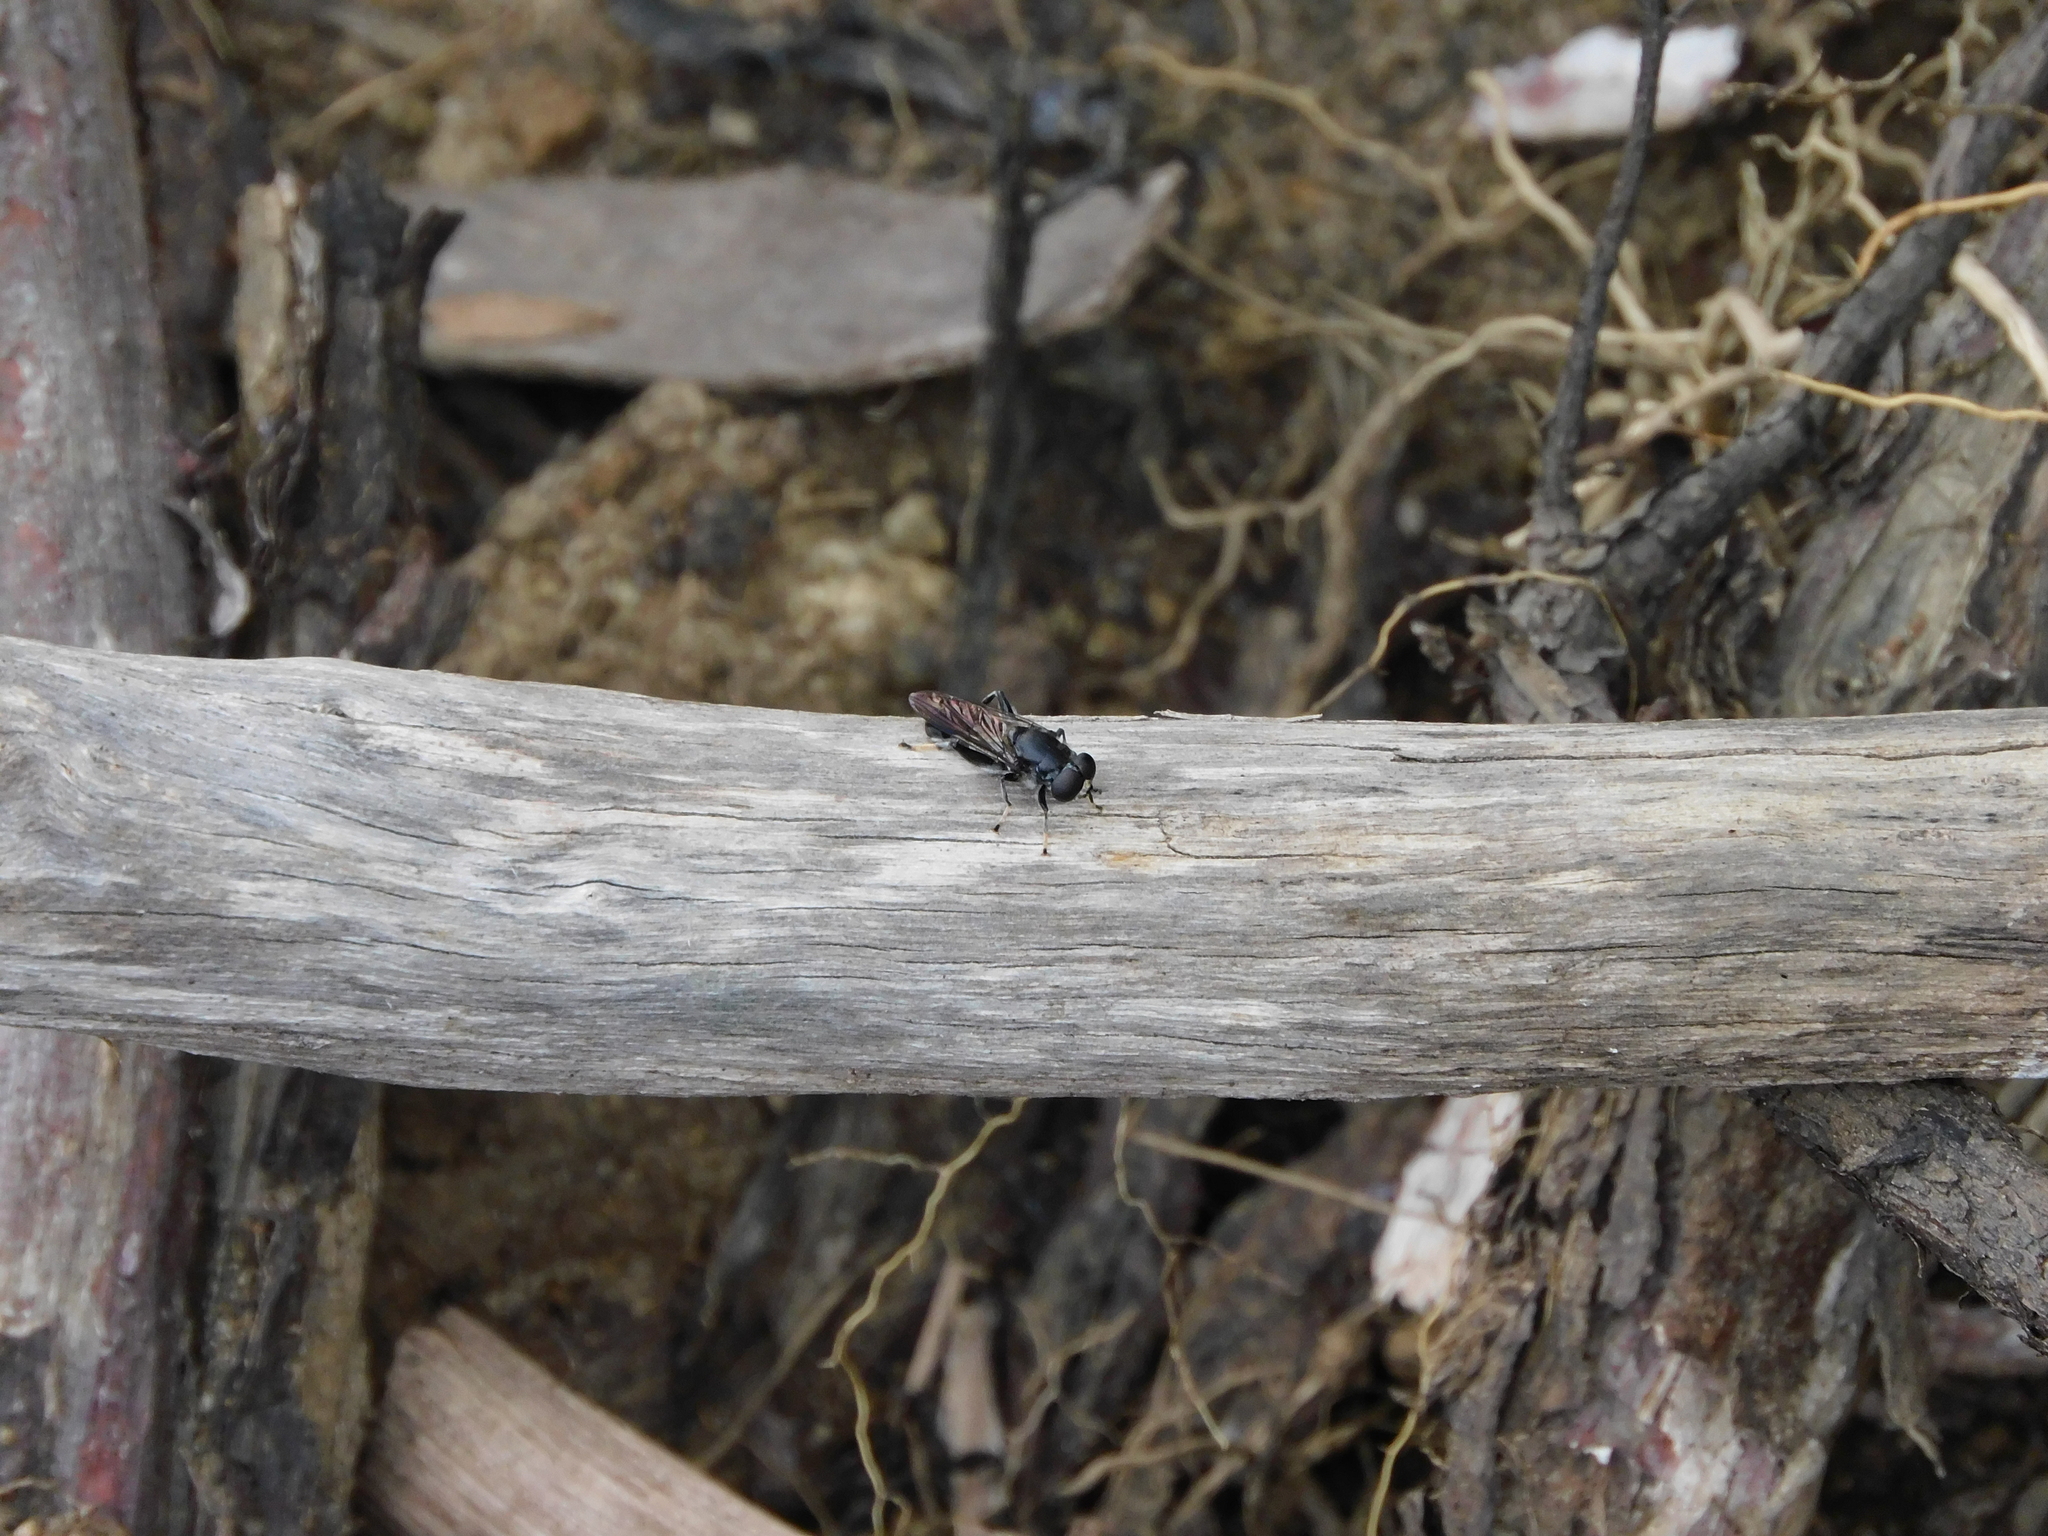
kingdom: Animalia
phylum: Arthropoda
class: Insecta
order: Diptera
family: Syrphidae
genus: Xylota
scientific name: Xylota flavitarsis
